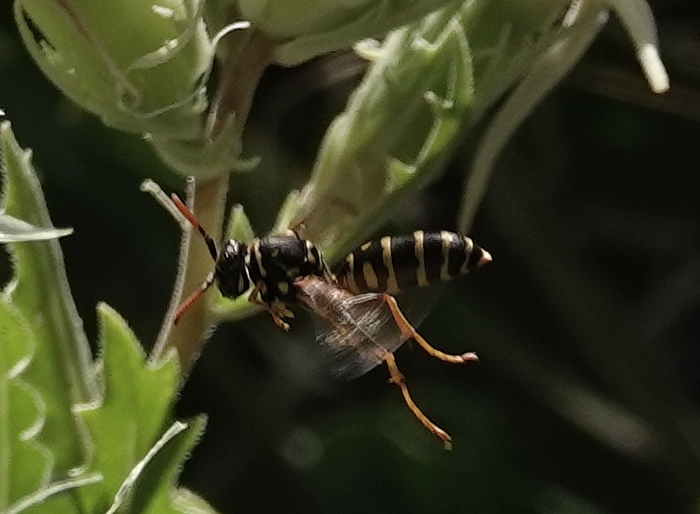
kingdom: Animalia
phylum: Arthropoda
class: Insecta
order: Hymenoptera
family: Eumenidae
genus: Polistes
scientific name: Polistes dominula
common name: Paper wasp
